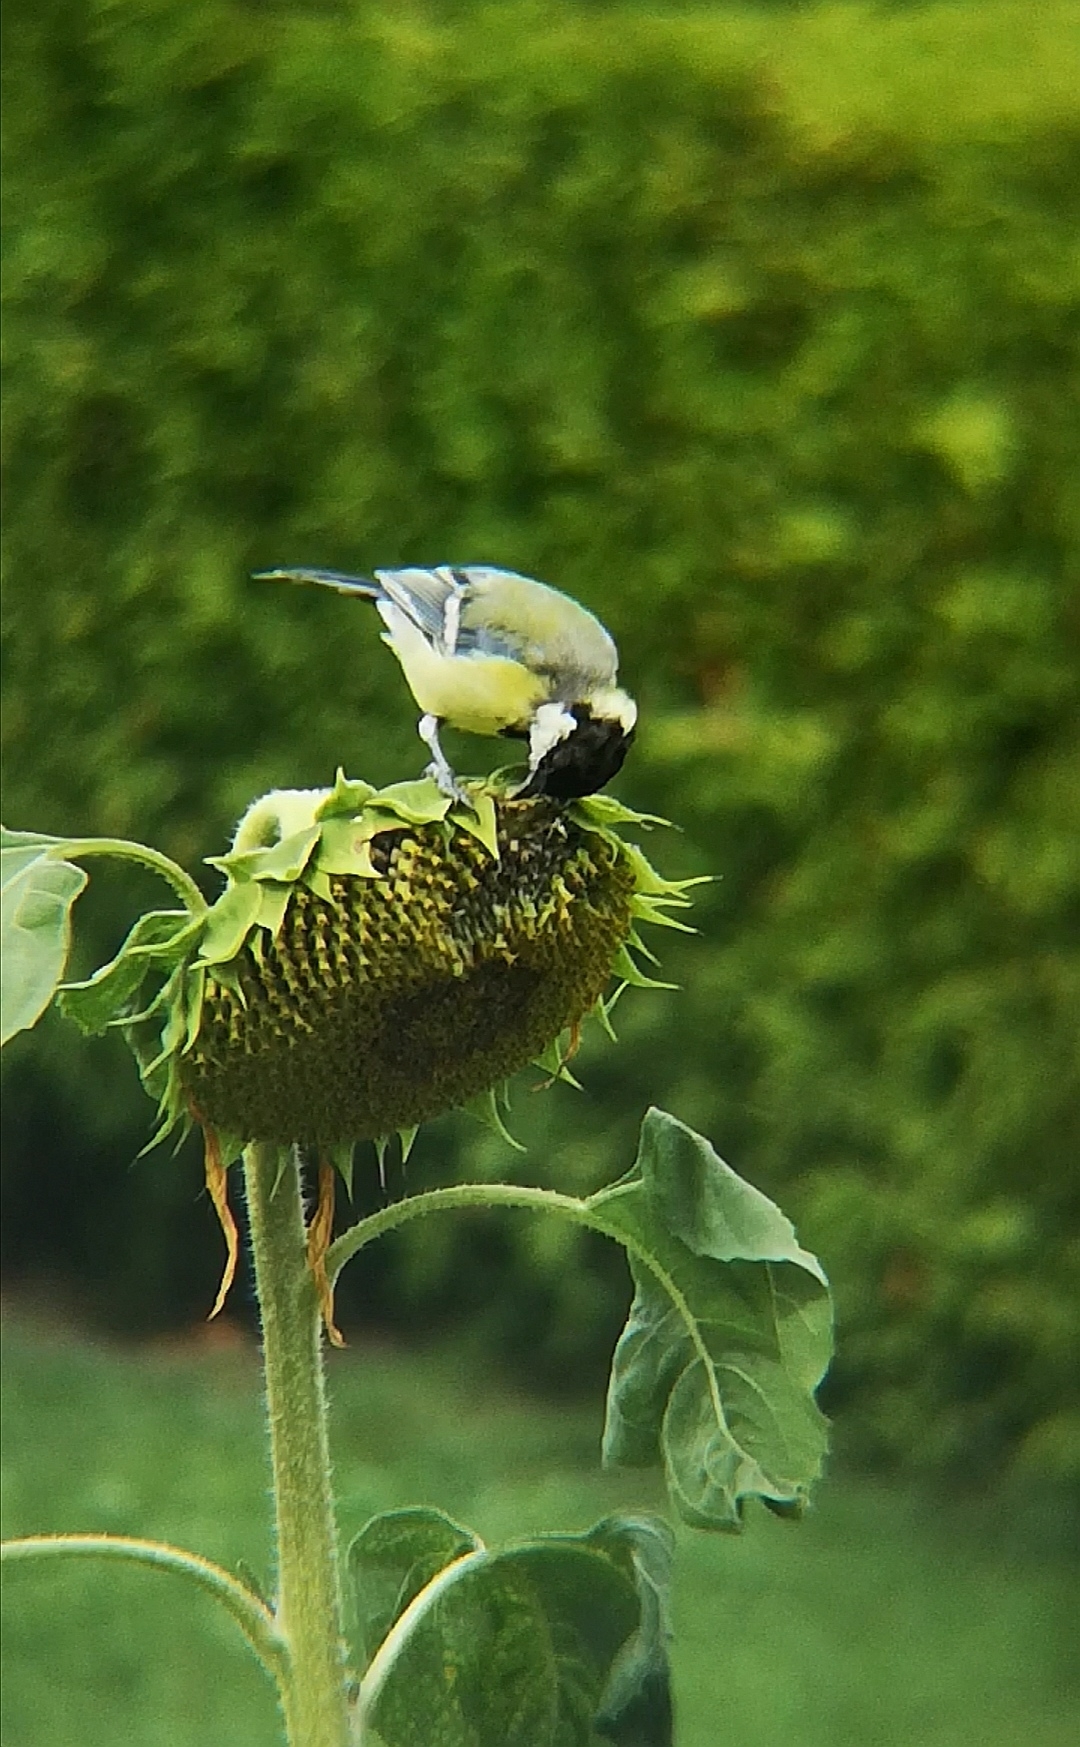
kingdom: Animalia
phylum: Chordata
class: Aves
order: Passeriformes
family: Paridae
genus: Parus
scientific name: Parus major
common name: Great tit
